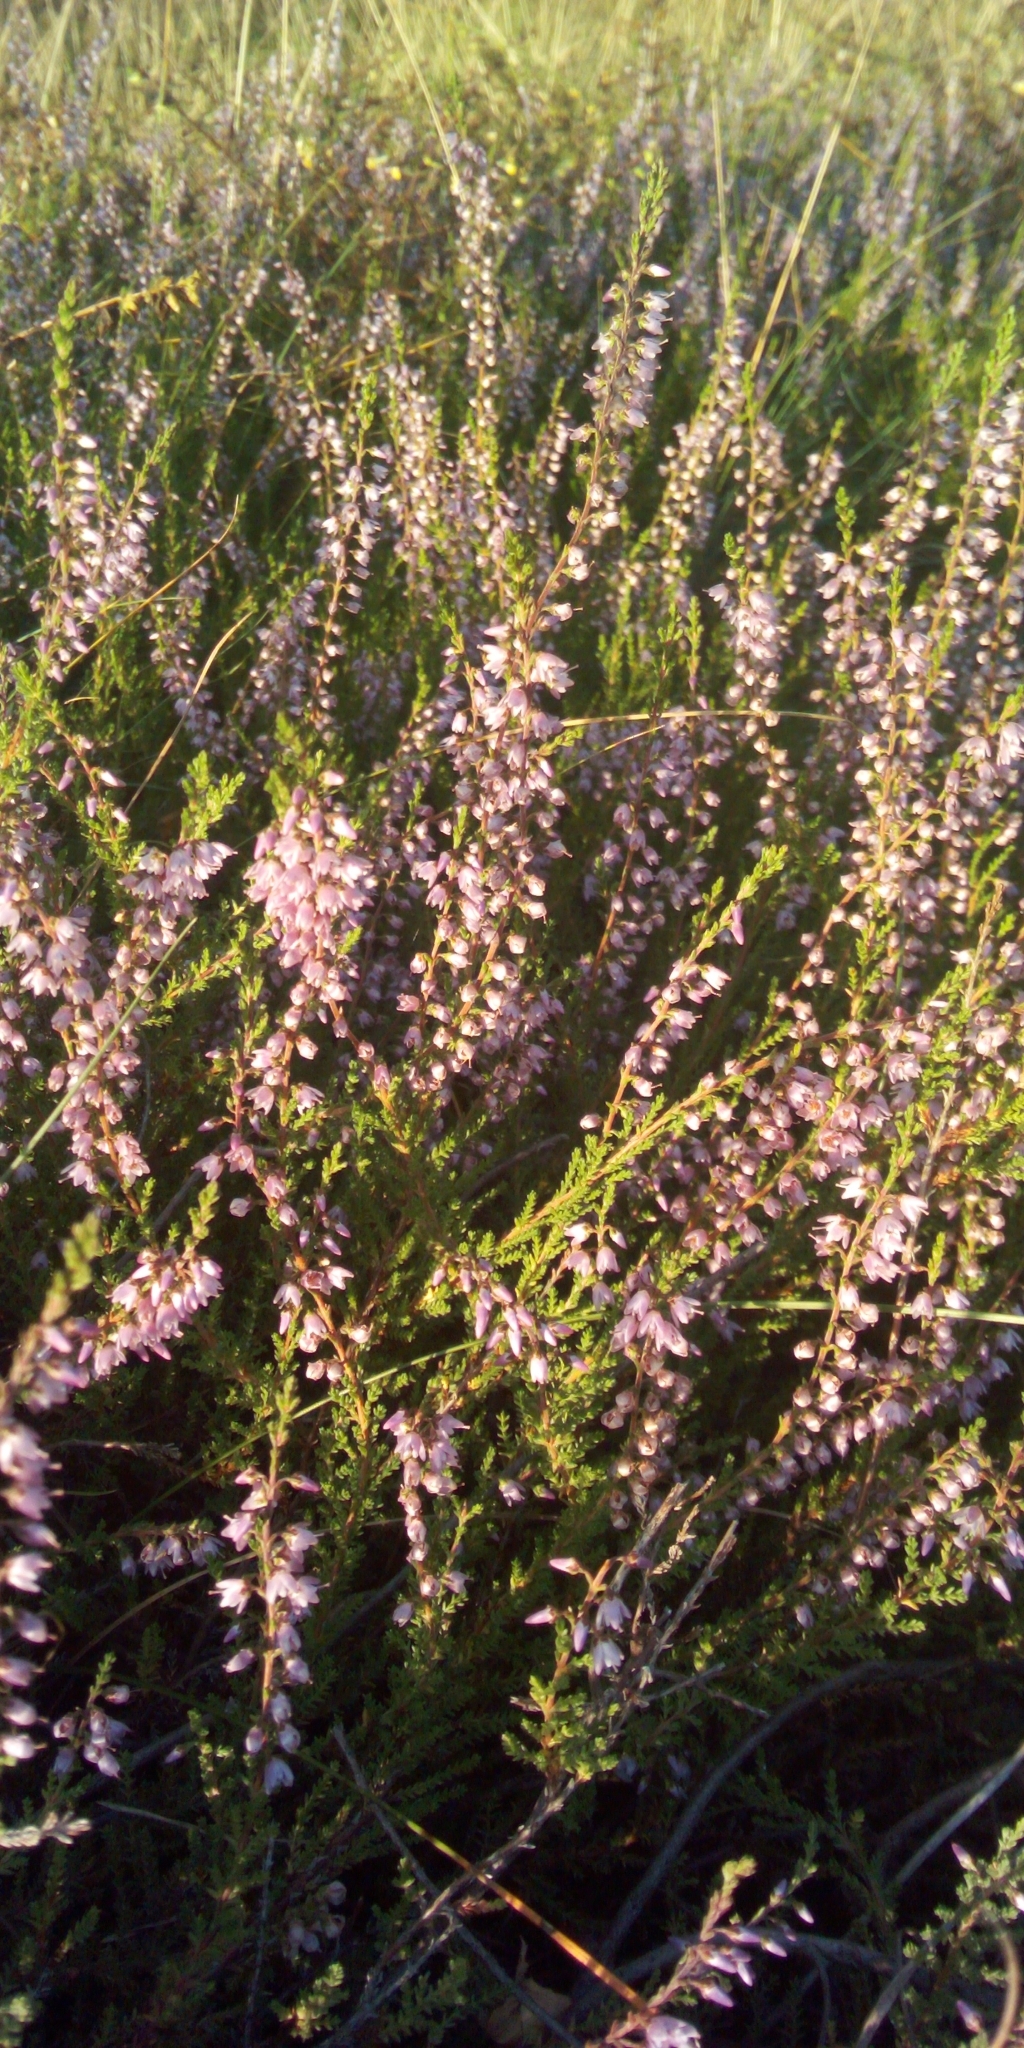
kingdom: Plantae
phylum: Tracheophyta
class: Magnoliopsida
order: Ericales
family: Ericaceae
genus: Calluna
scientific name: Calluna vulgaris
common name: Heather
